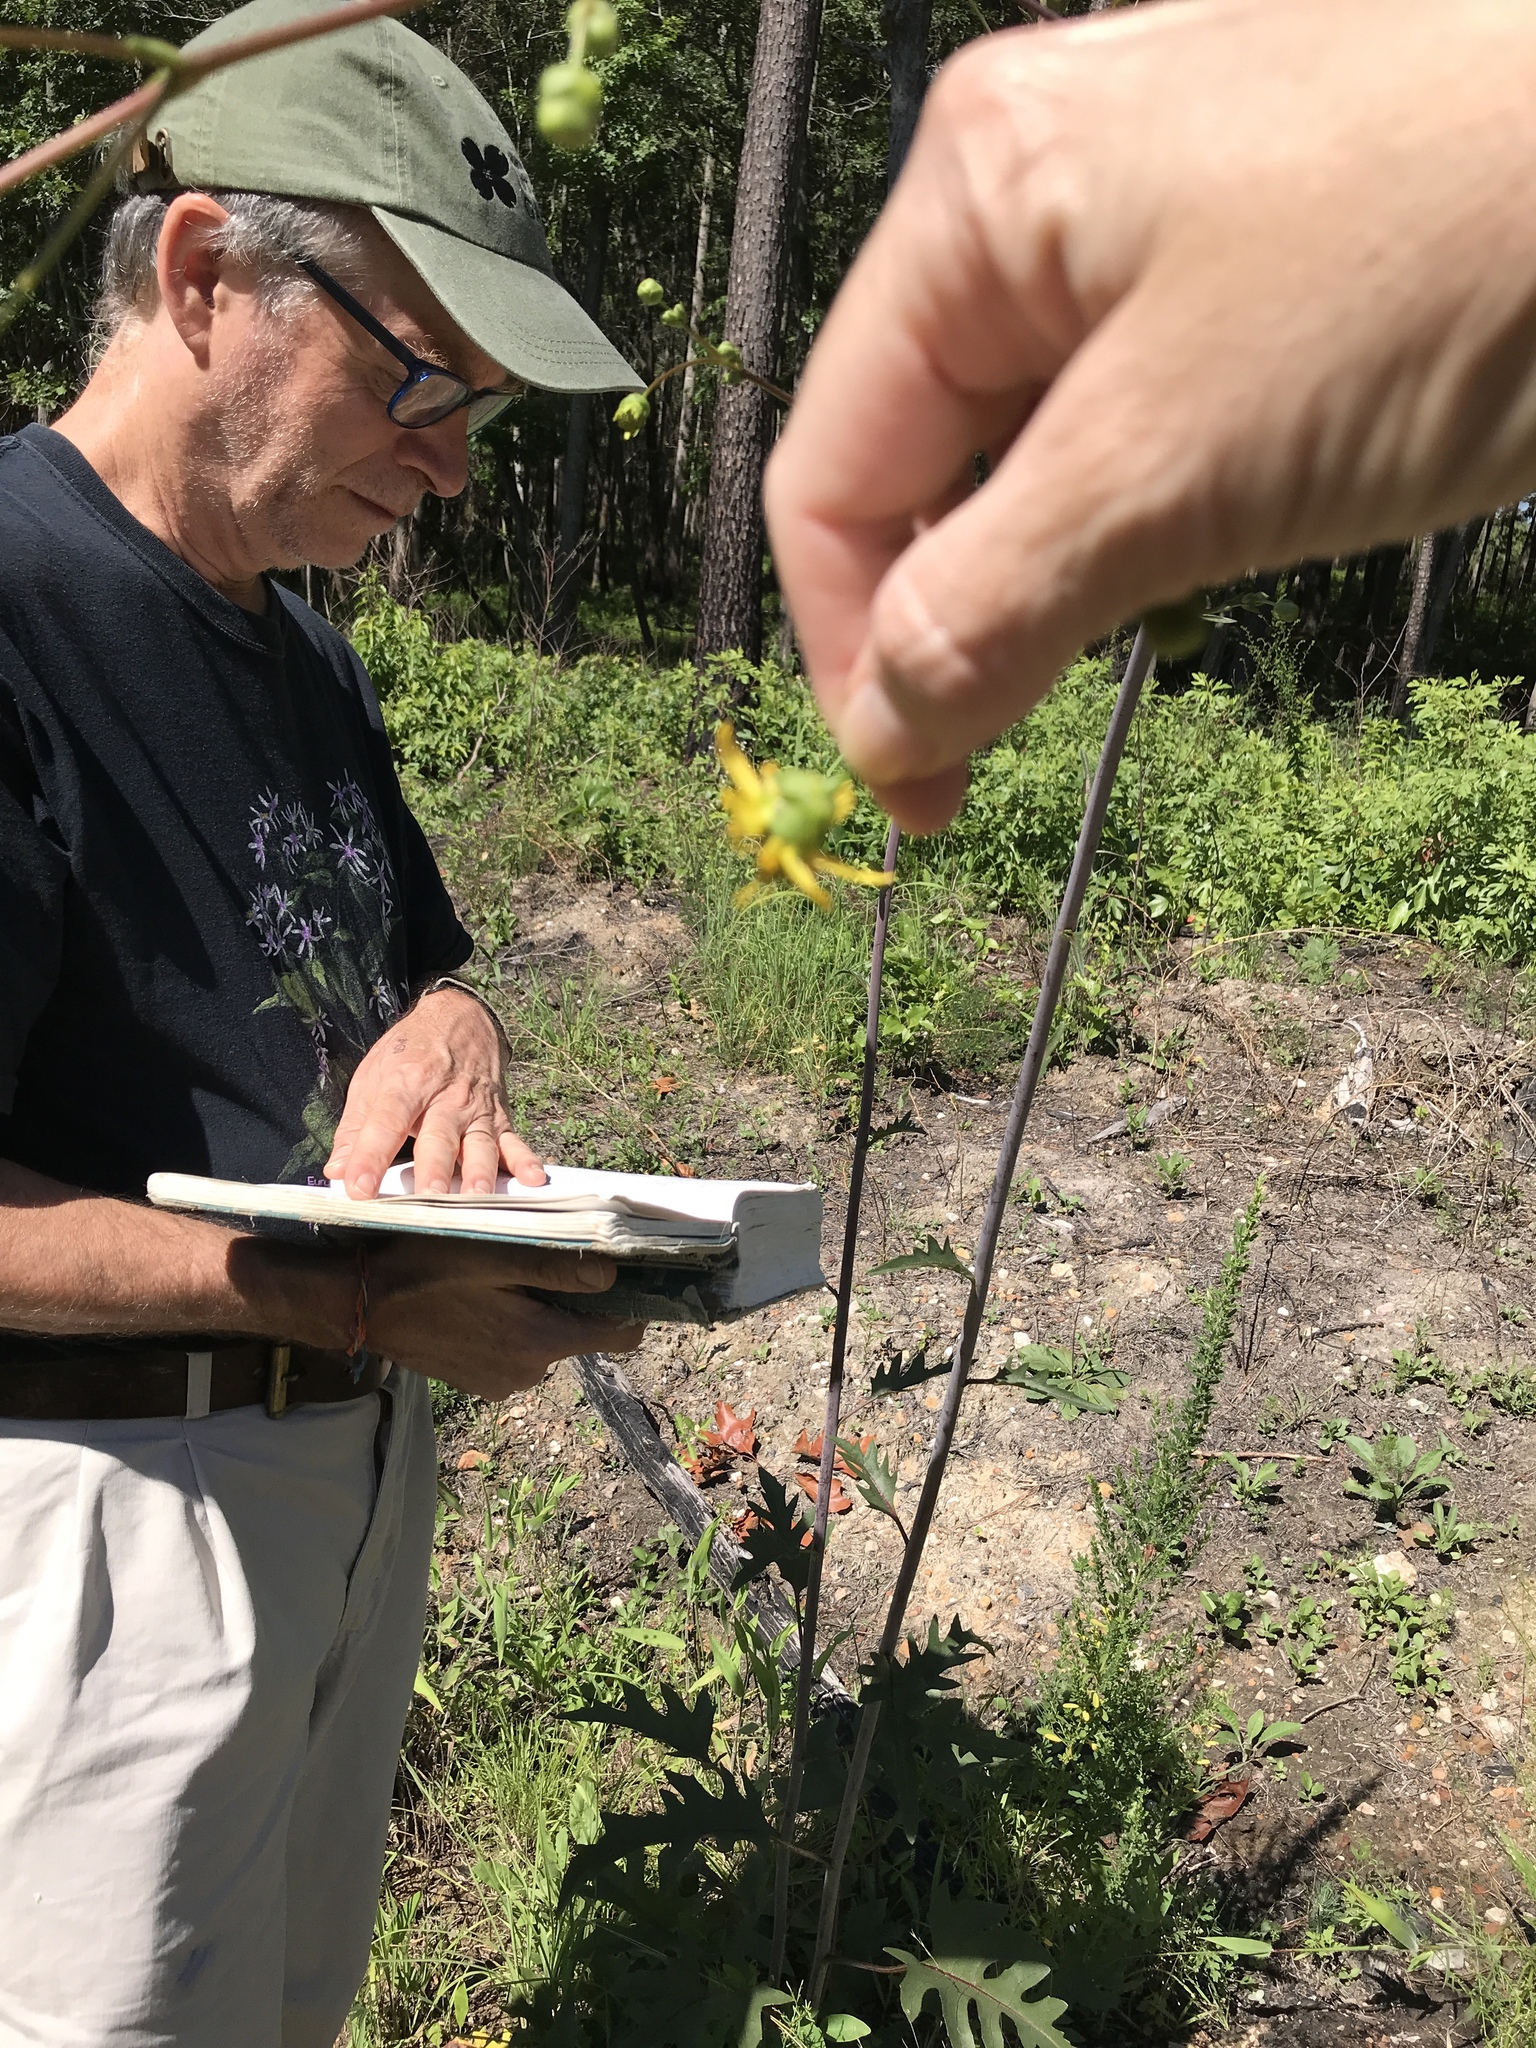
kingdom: Plantae
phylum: Tracheophyta
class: Magnoliopsida
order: Asterales
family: Asteraceae
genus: Silphium
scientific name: Silphium compositum
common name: Lesser basal-leaf rosinweed
